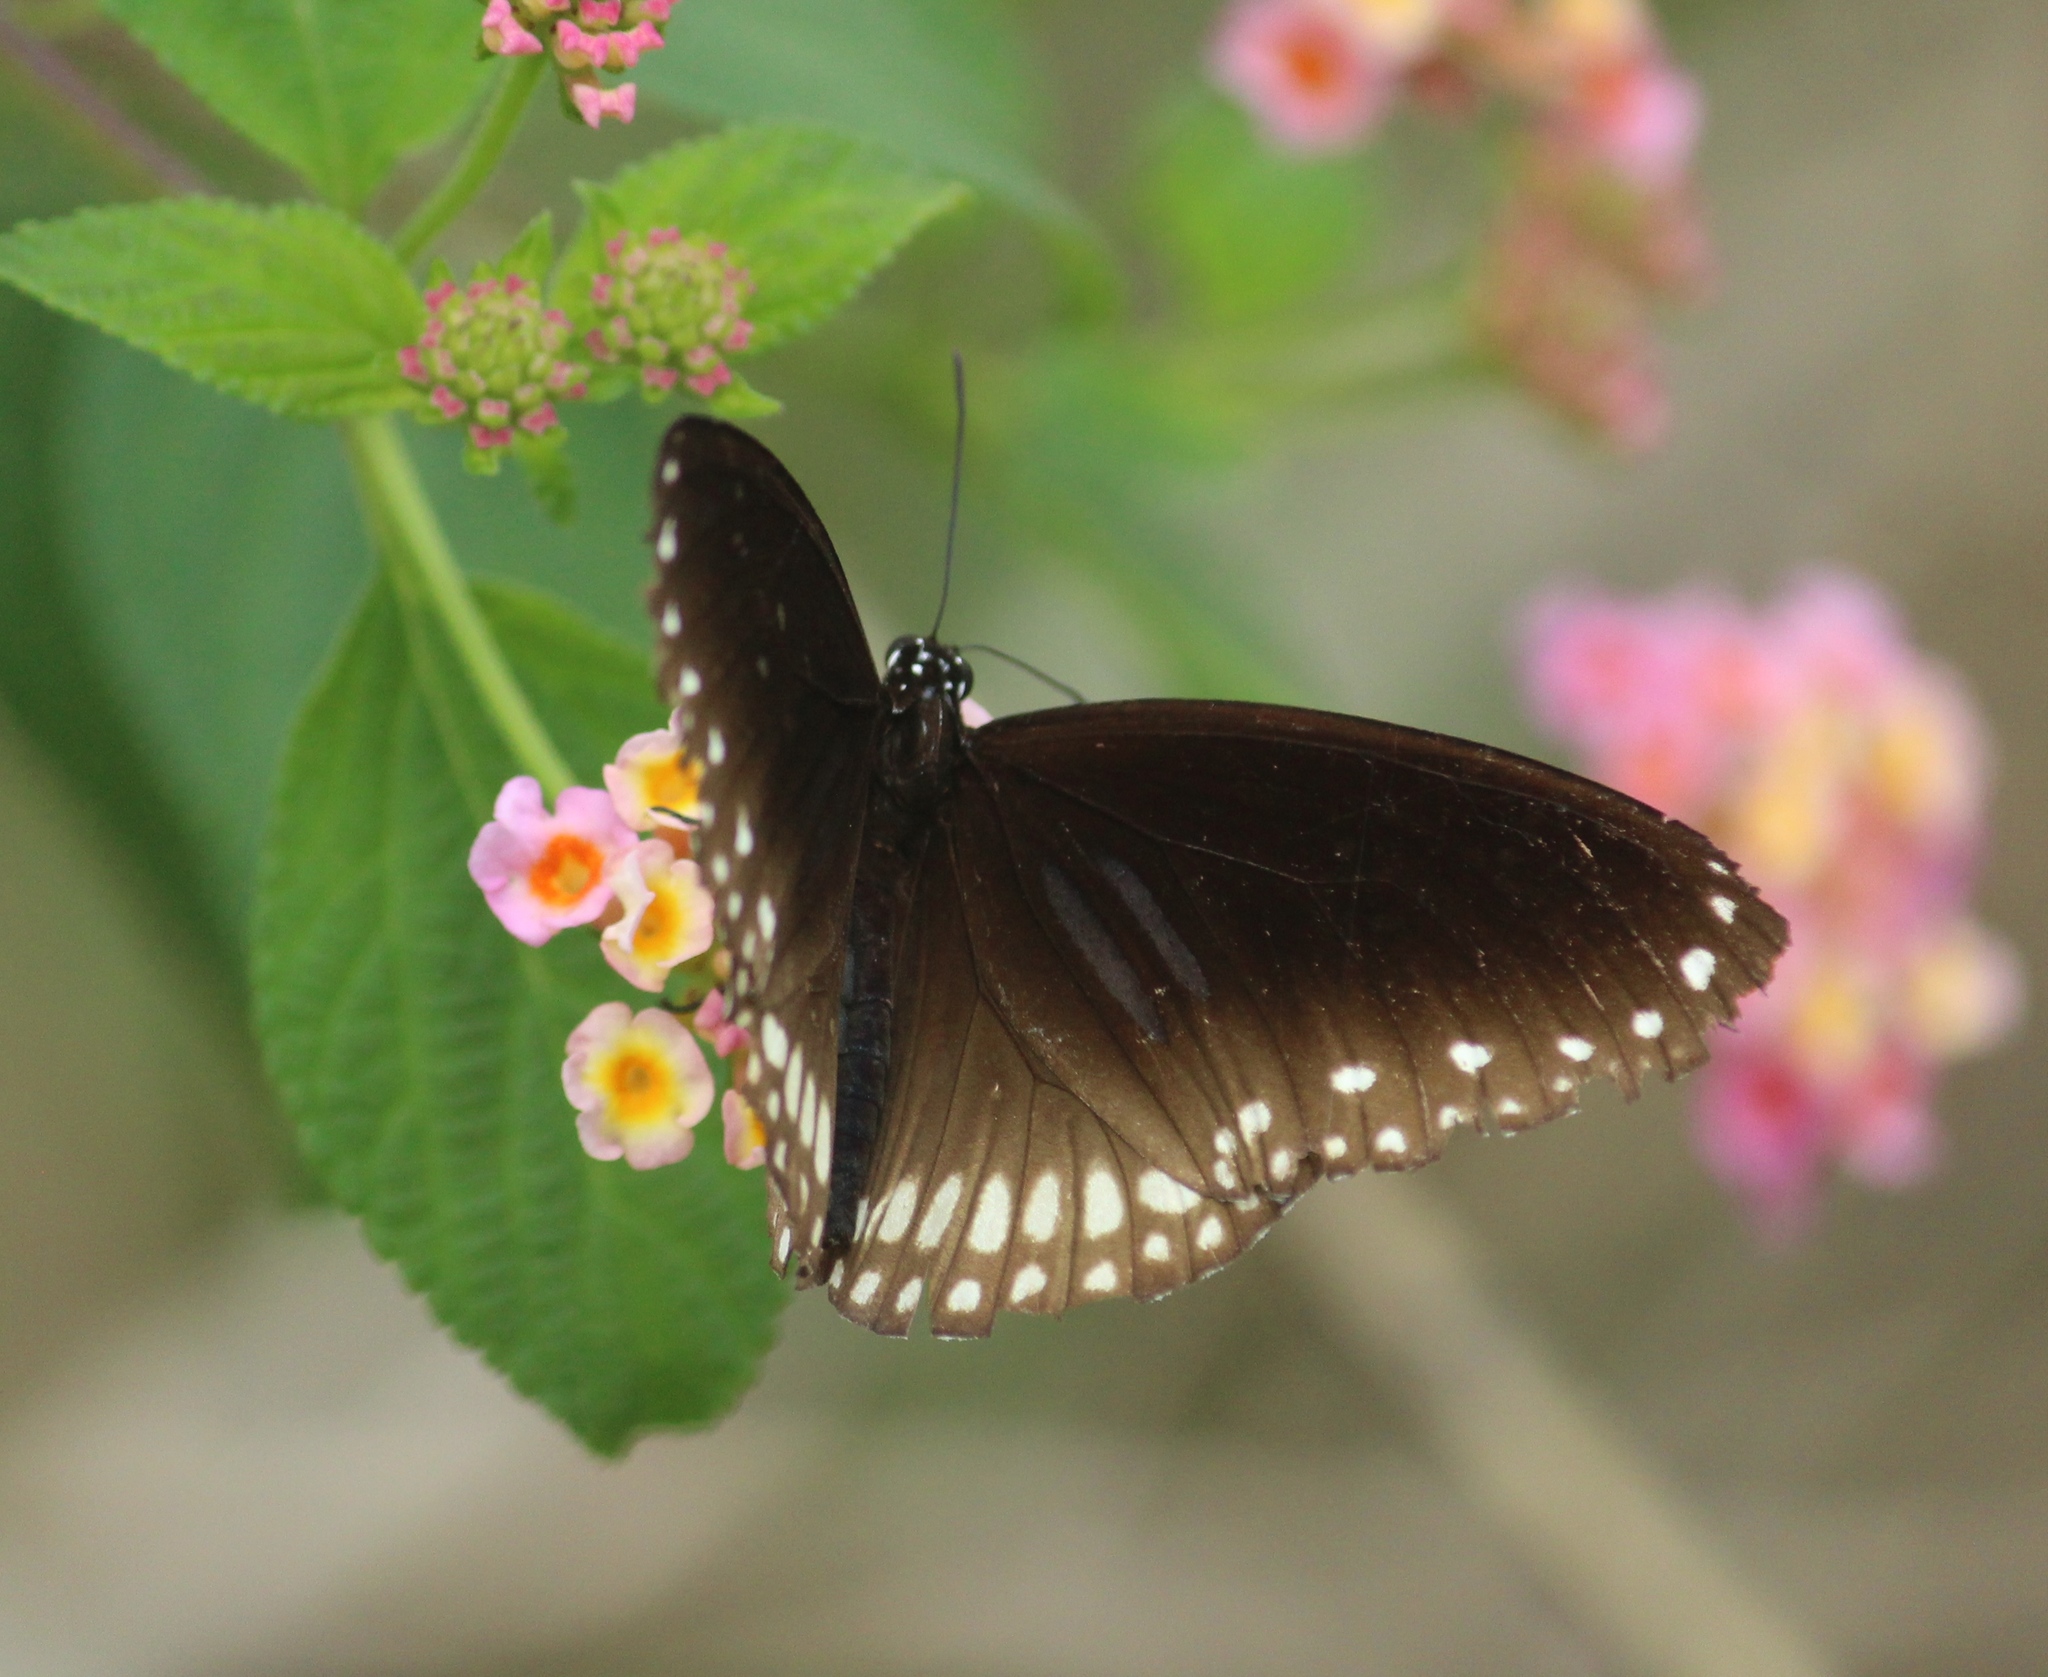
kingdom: Animalia
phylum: Arthropoda
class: Insecta
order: Lepidoptera
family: Nymphalidae
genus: Euploea
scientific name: Euploea sylvester
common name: Double-branded crow butterfly
